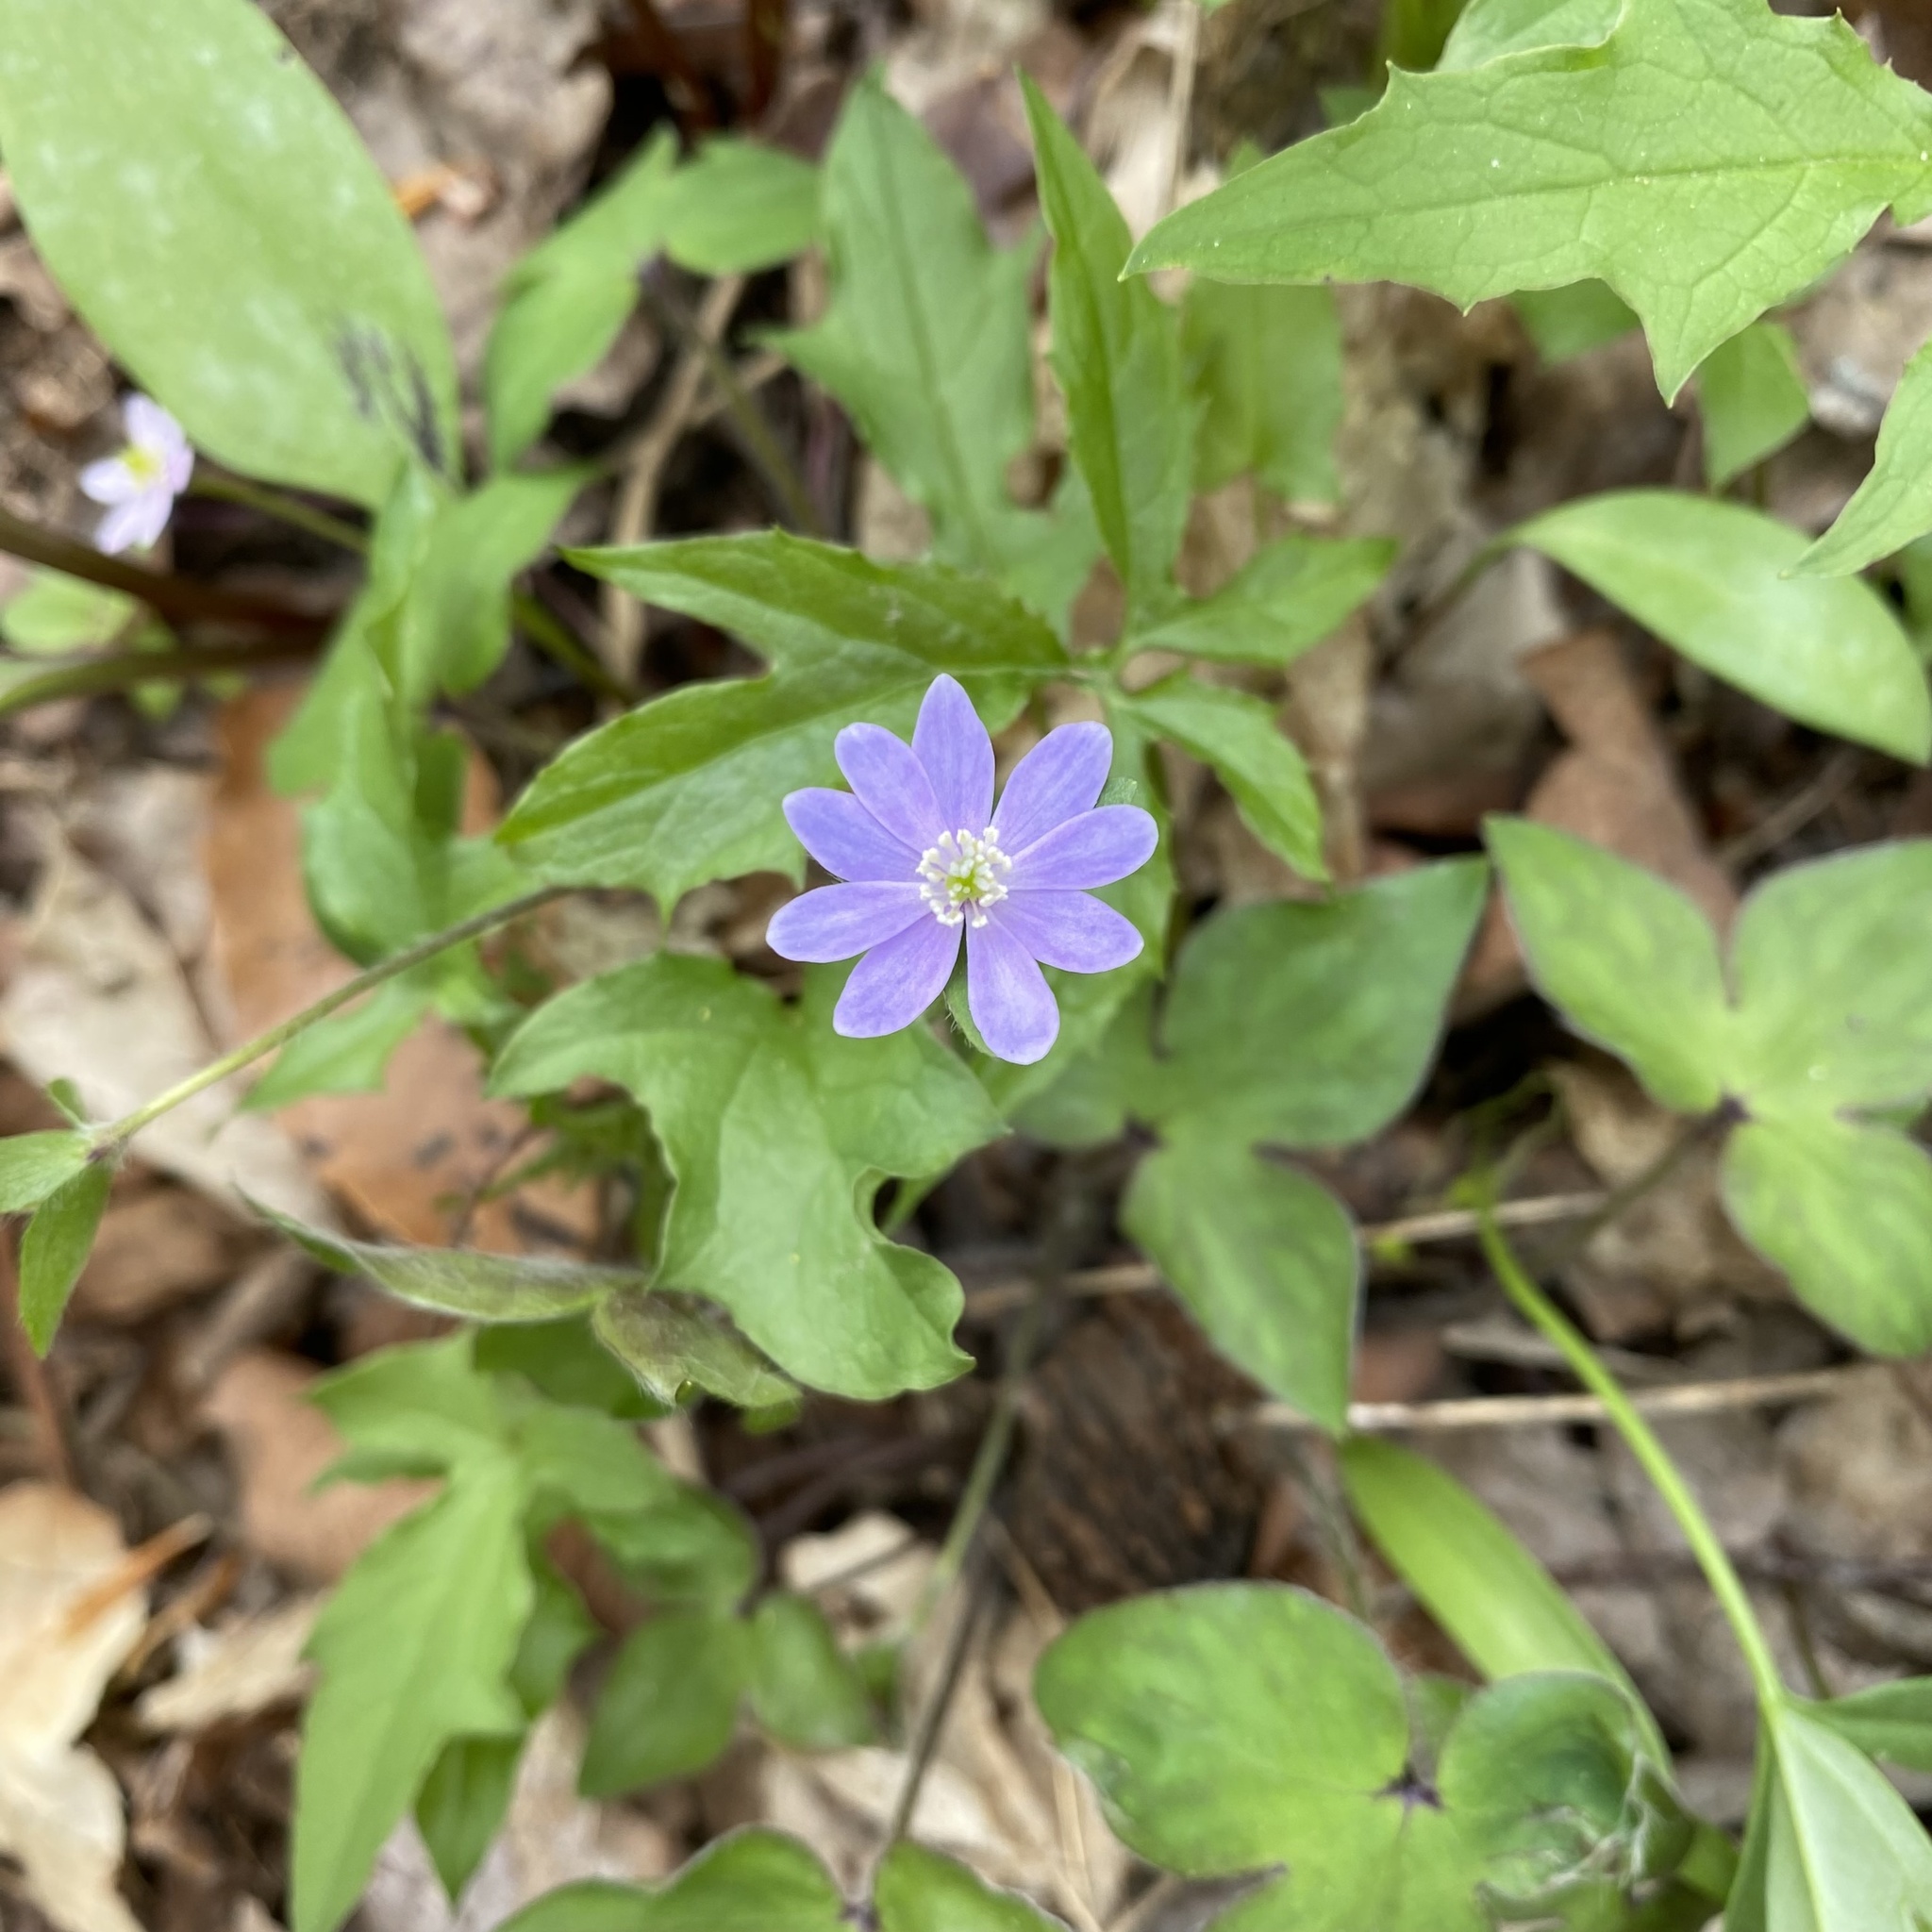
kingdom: Plantae
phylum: Tracheophyta
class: Magnoliopsida
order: Ranunculales
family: Ranunculaceae
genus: Hepatica
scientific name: Hepatica acutiloba
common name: Sharp-lobed hepatica
